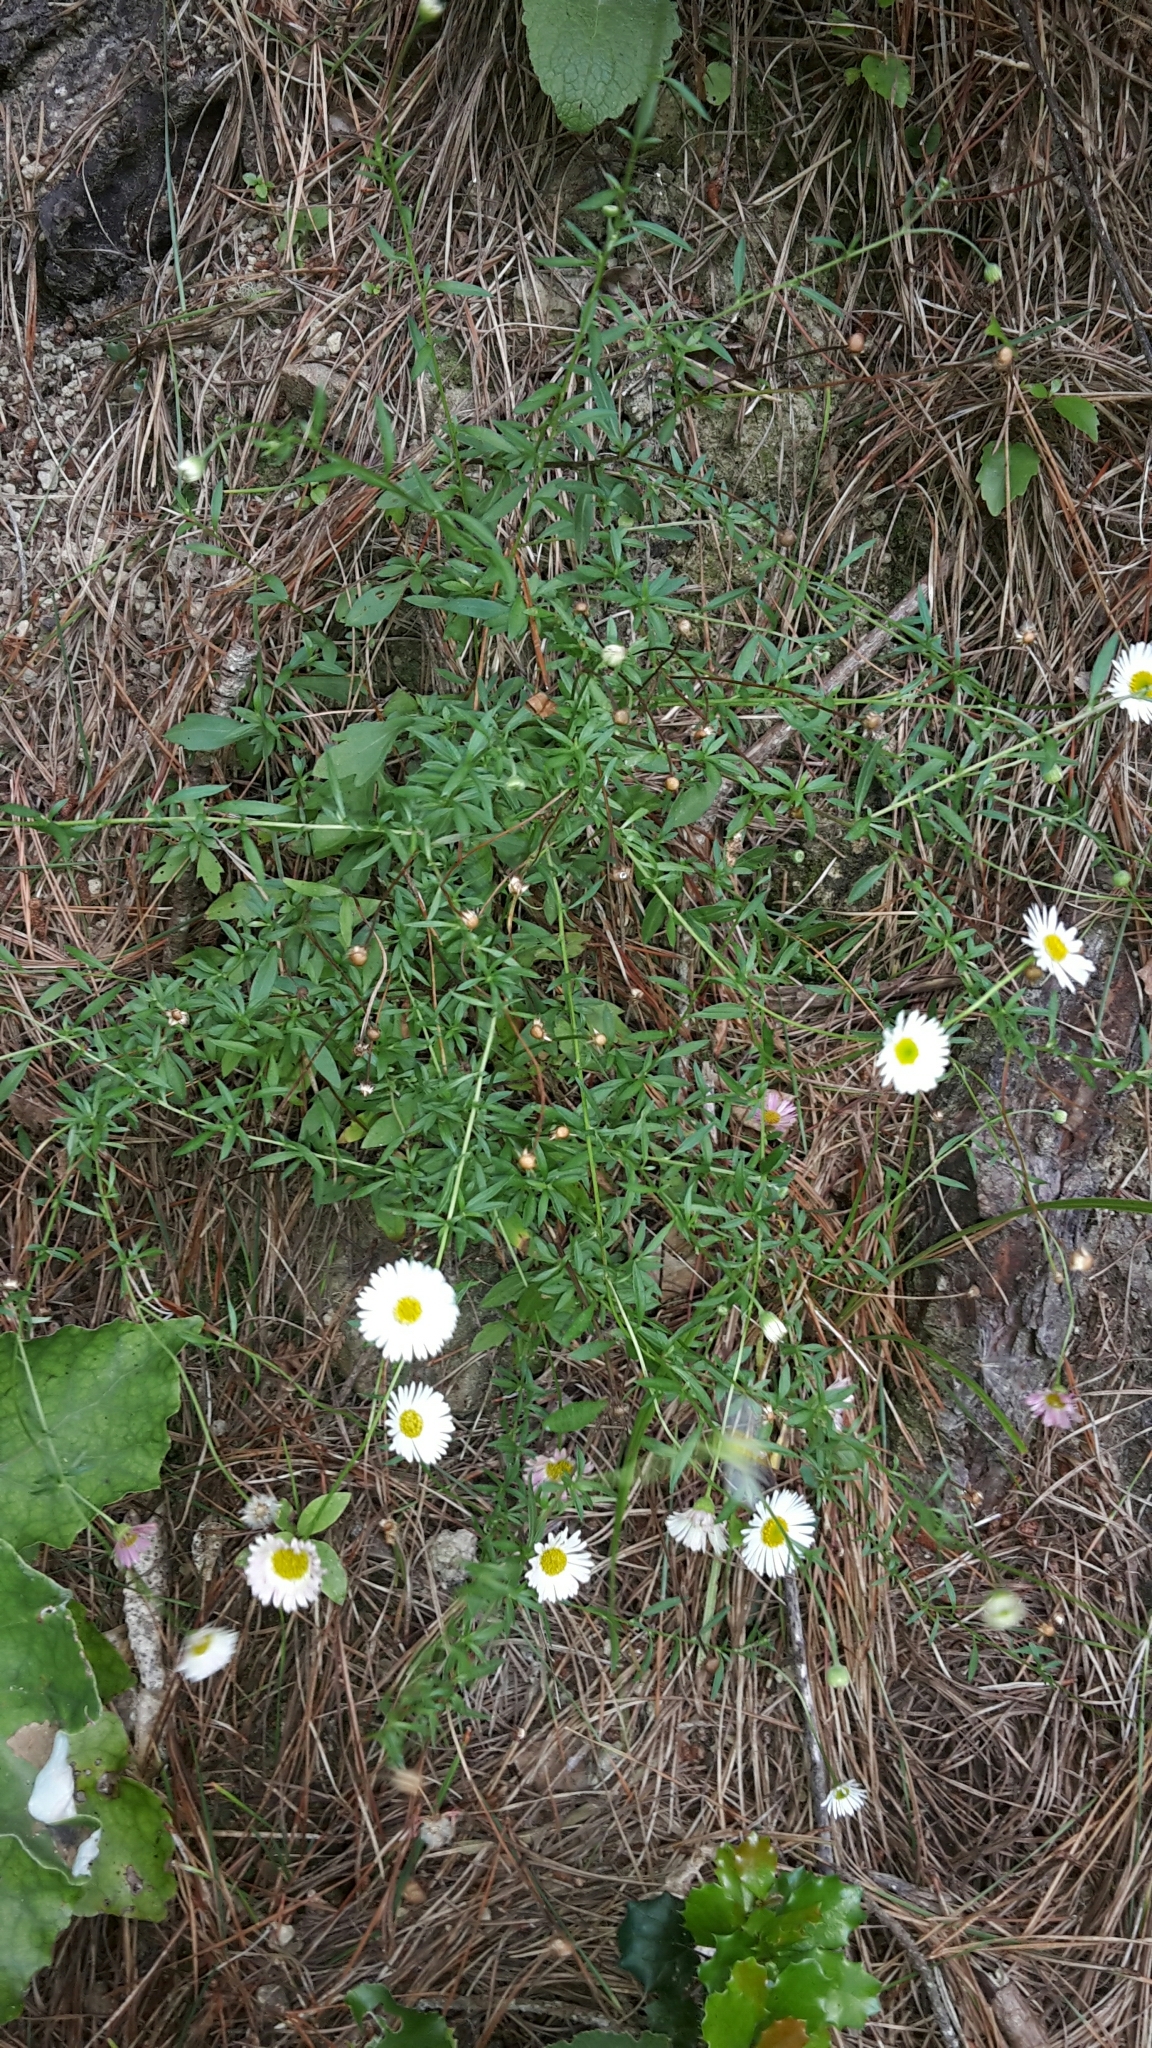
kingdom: Plantae
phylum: Tracheophyta
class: Magnoliopsida
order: Asterales
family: Asteraceae
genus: Erigeron
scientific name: Erigeron karvinskianus
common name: Mexican fleabane
